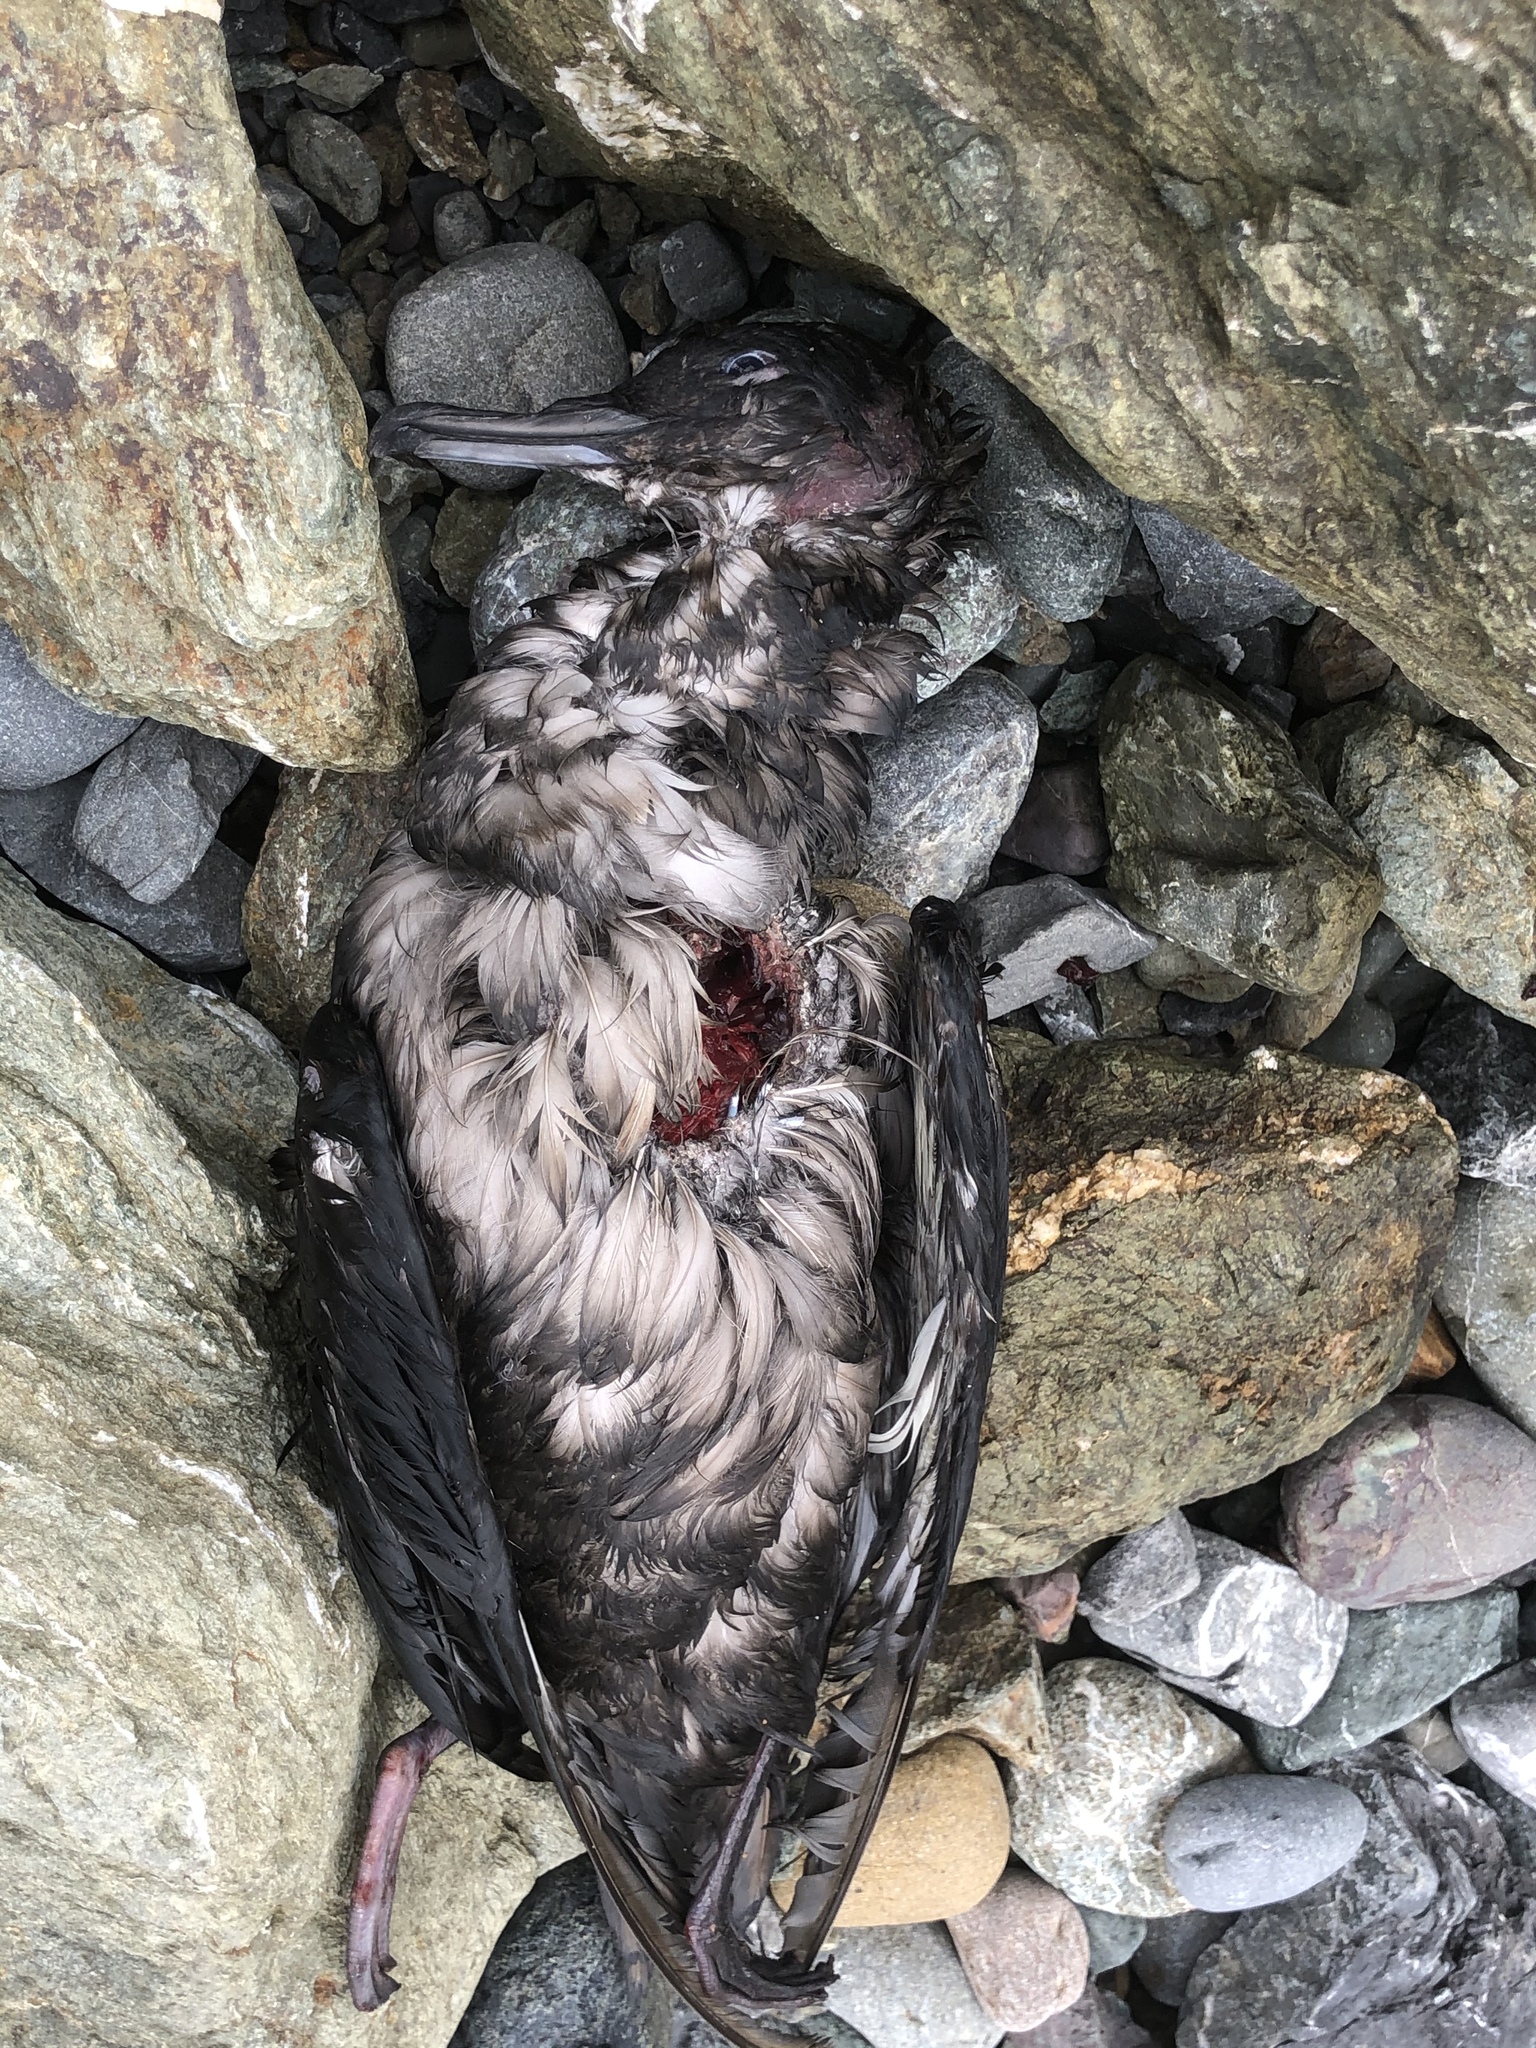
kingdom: Animalia
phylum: Chordata
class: Aves
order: Procellariiformes
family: Procellariidae
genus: Puffinus
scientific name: Puffinus griseus
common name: Sooty shearwater
